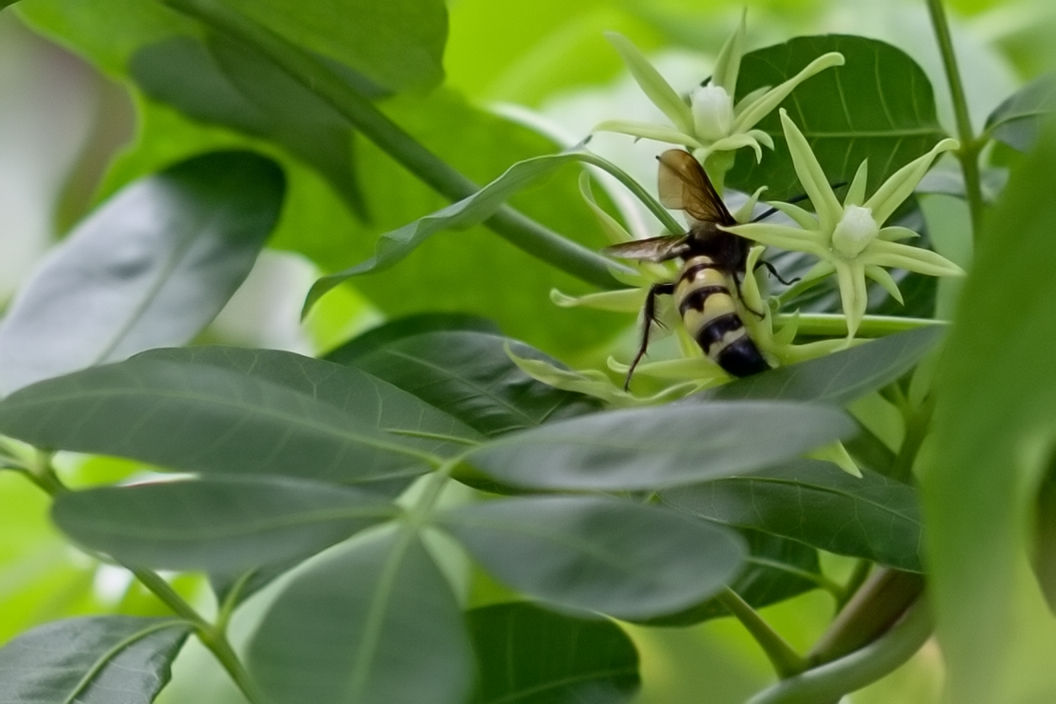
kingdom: Animalia
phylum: Arthropoda
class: Insecta
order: Hymenoptera
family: Scoliidae
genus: Dielis
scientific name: Dielis
